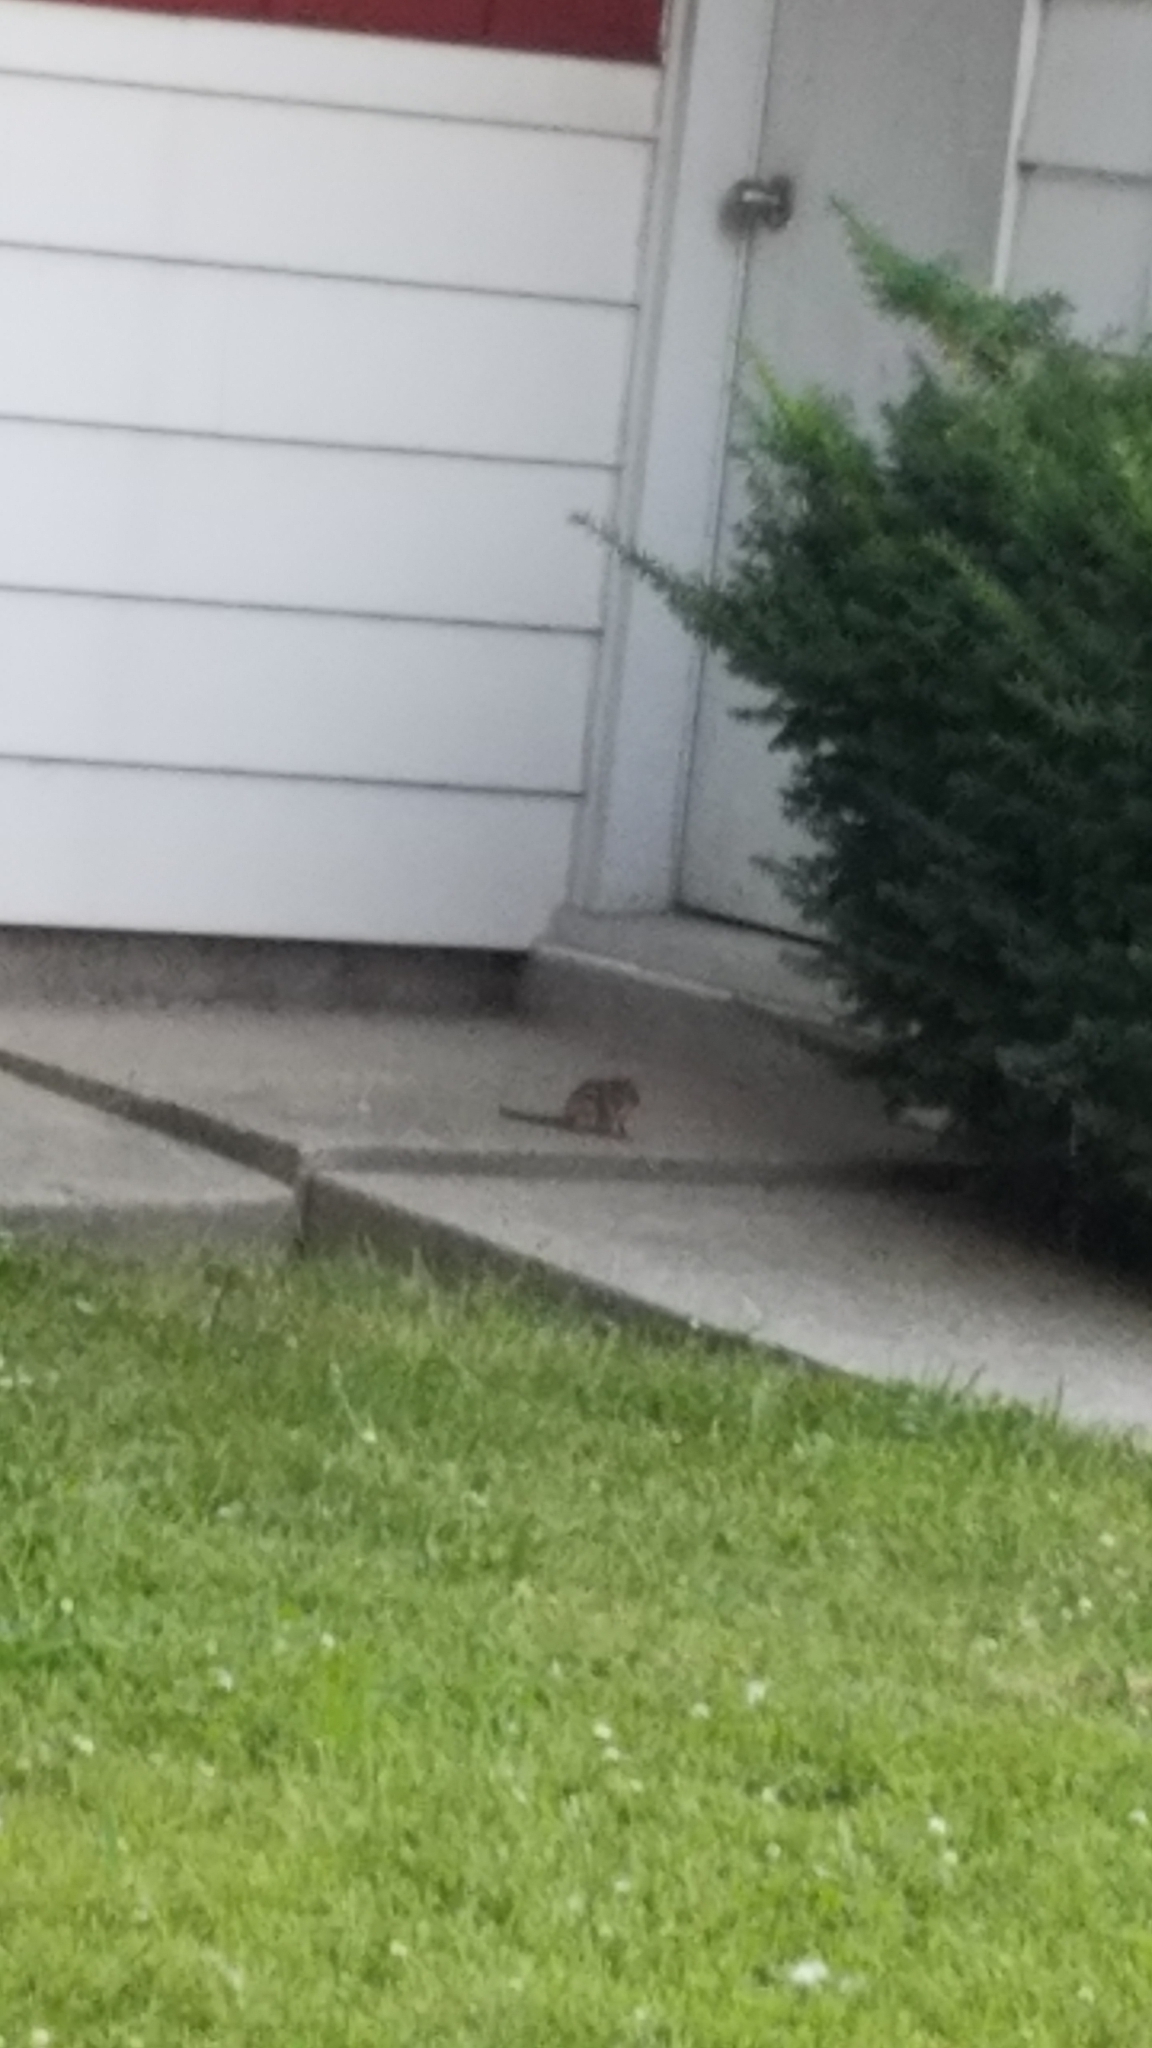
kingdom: Animalia
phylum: Chordata
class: Mammalia
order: Rodentia
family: Sciuridae
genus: Tamias
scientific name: Tamias striatus
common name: Eastern chipmunk
